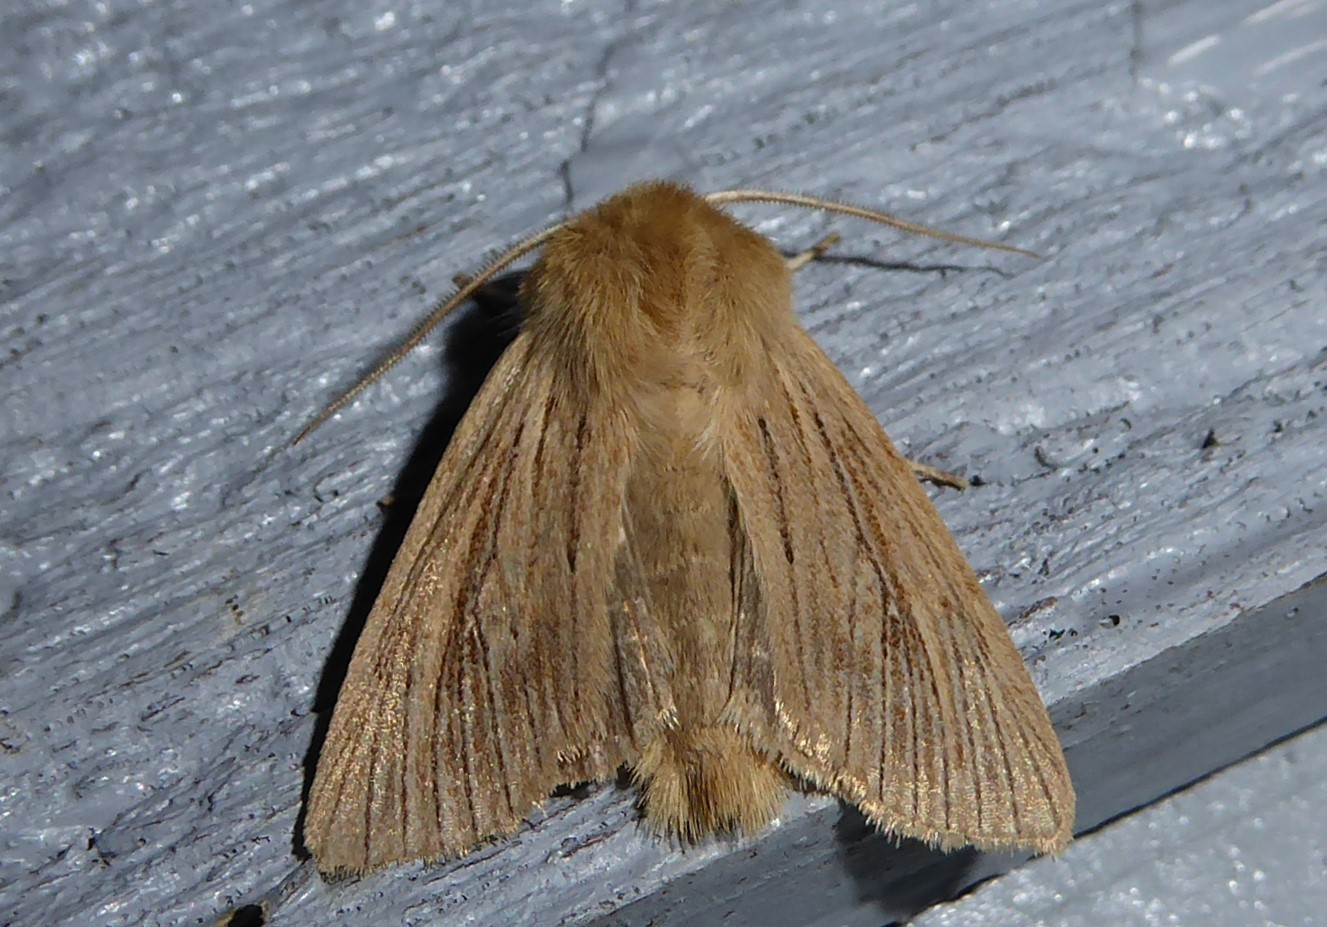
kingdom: Animalia
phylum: Arthropoda
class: Insecta
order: Lepidoptera
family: Noctuidae
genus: Ichneutica
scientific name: Ichneutica arotis
